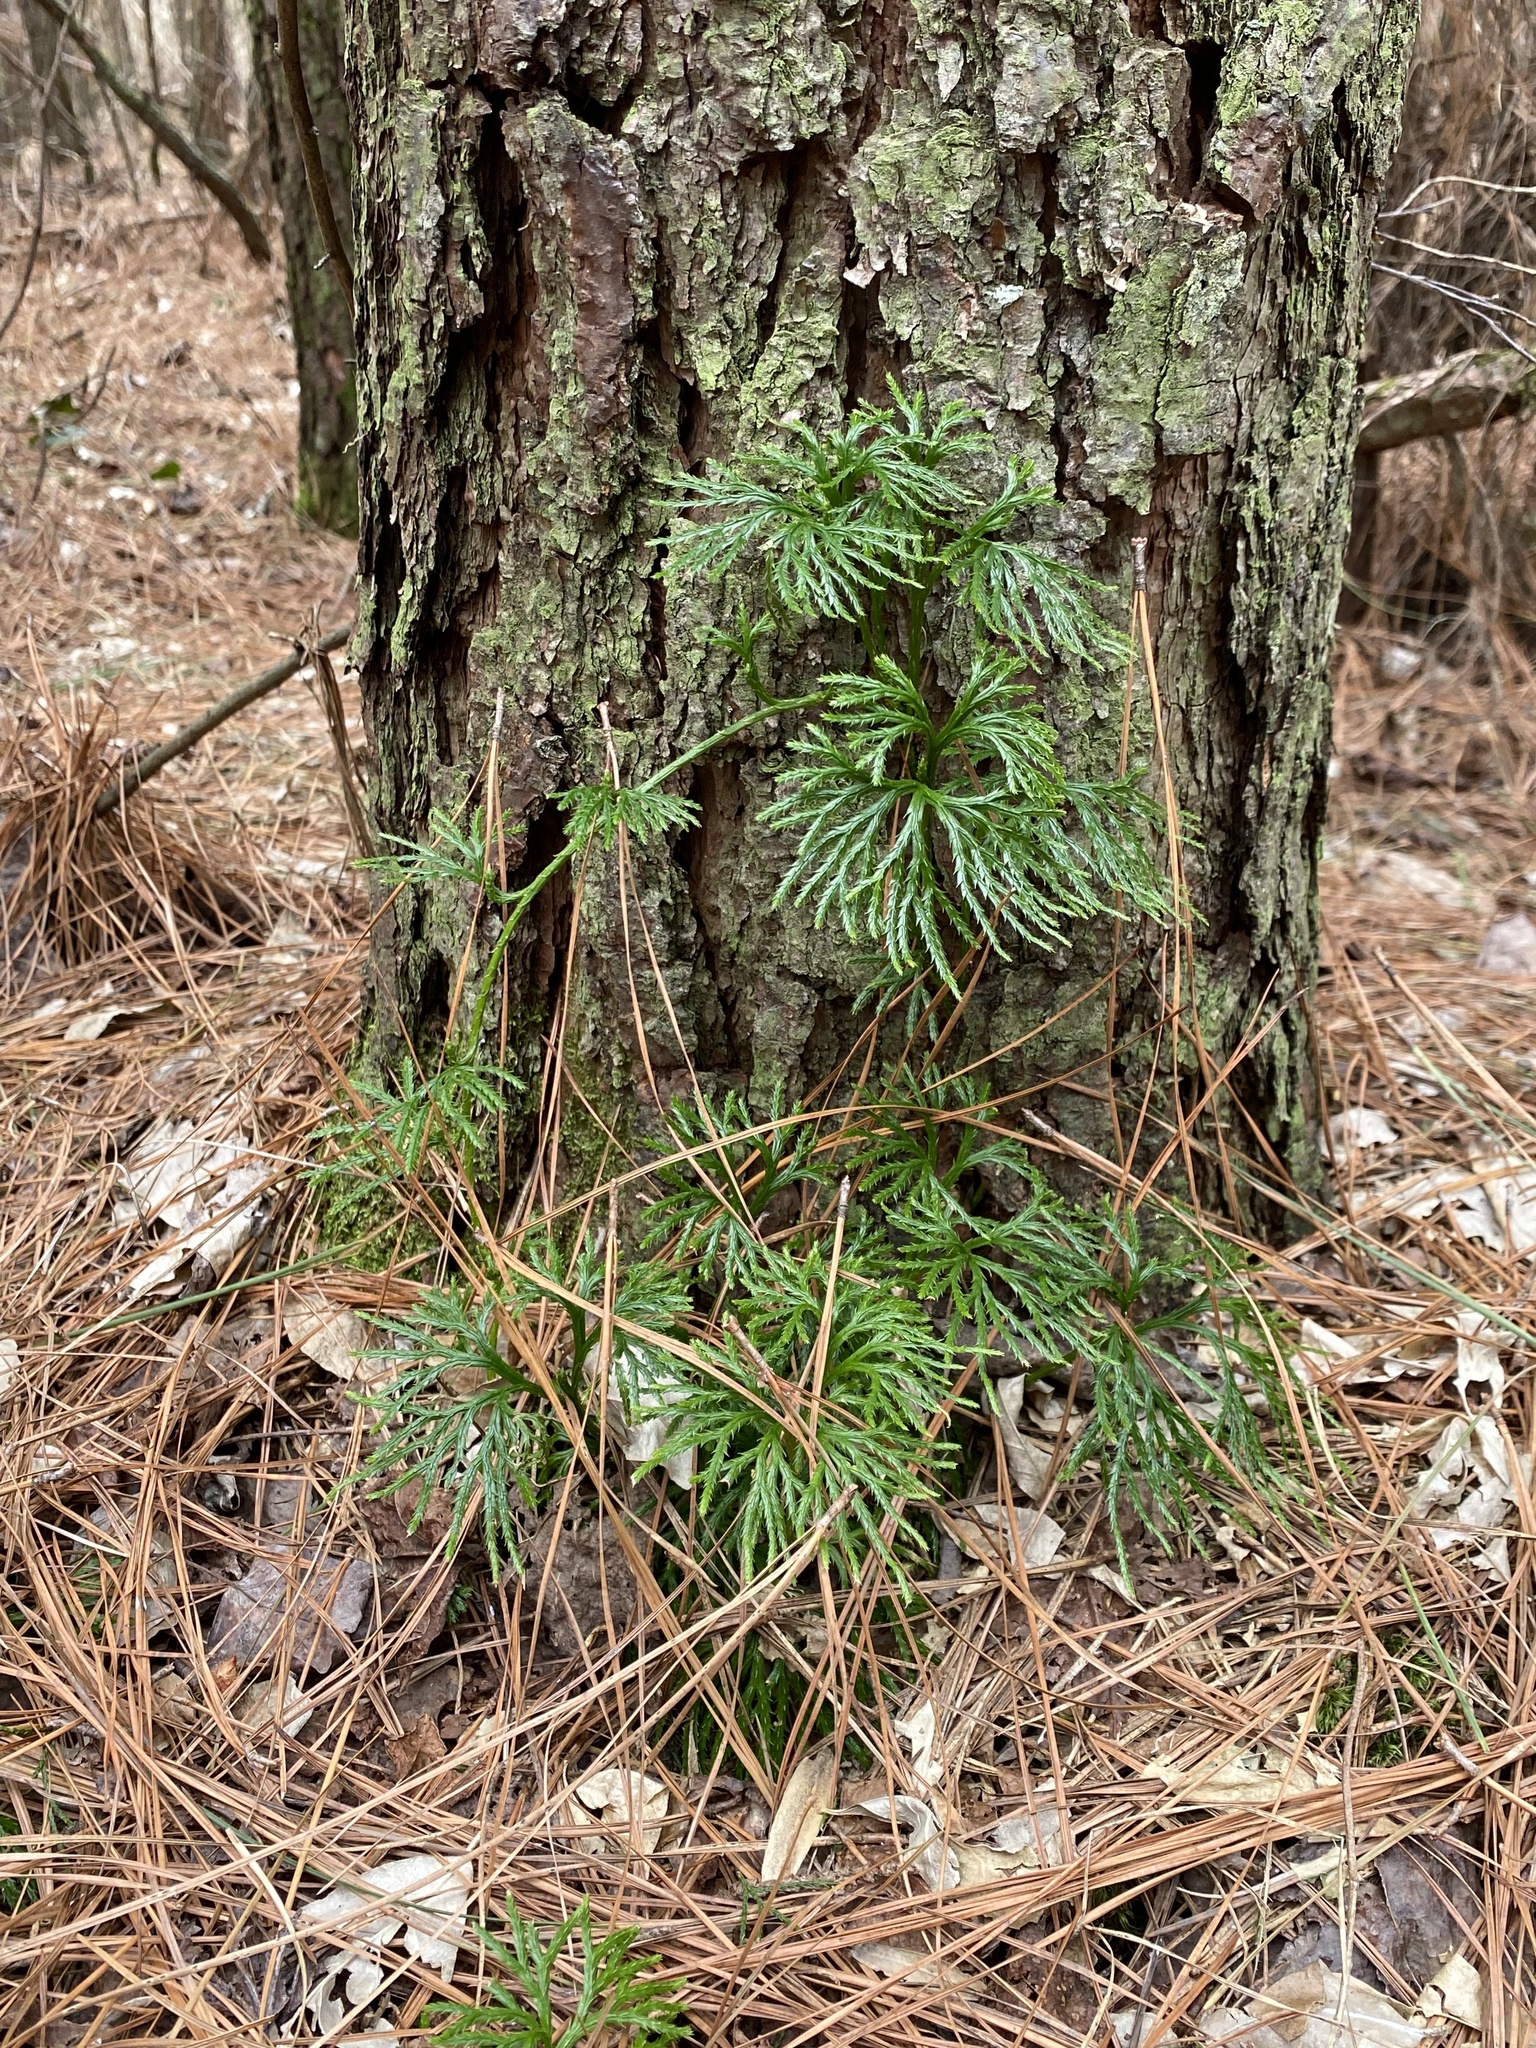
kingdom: Plantae
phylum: Tracheophyta
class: Lycopodiopsida
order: Lycopodiales
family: Lycopodiaceae
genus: Diphasiastrum
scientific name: Diphasiastrum digitatum
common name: Southern running-pine
